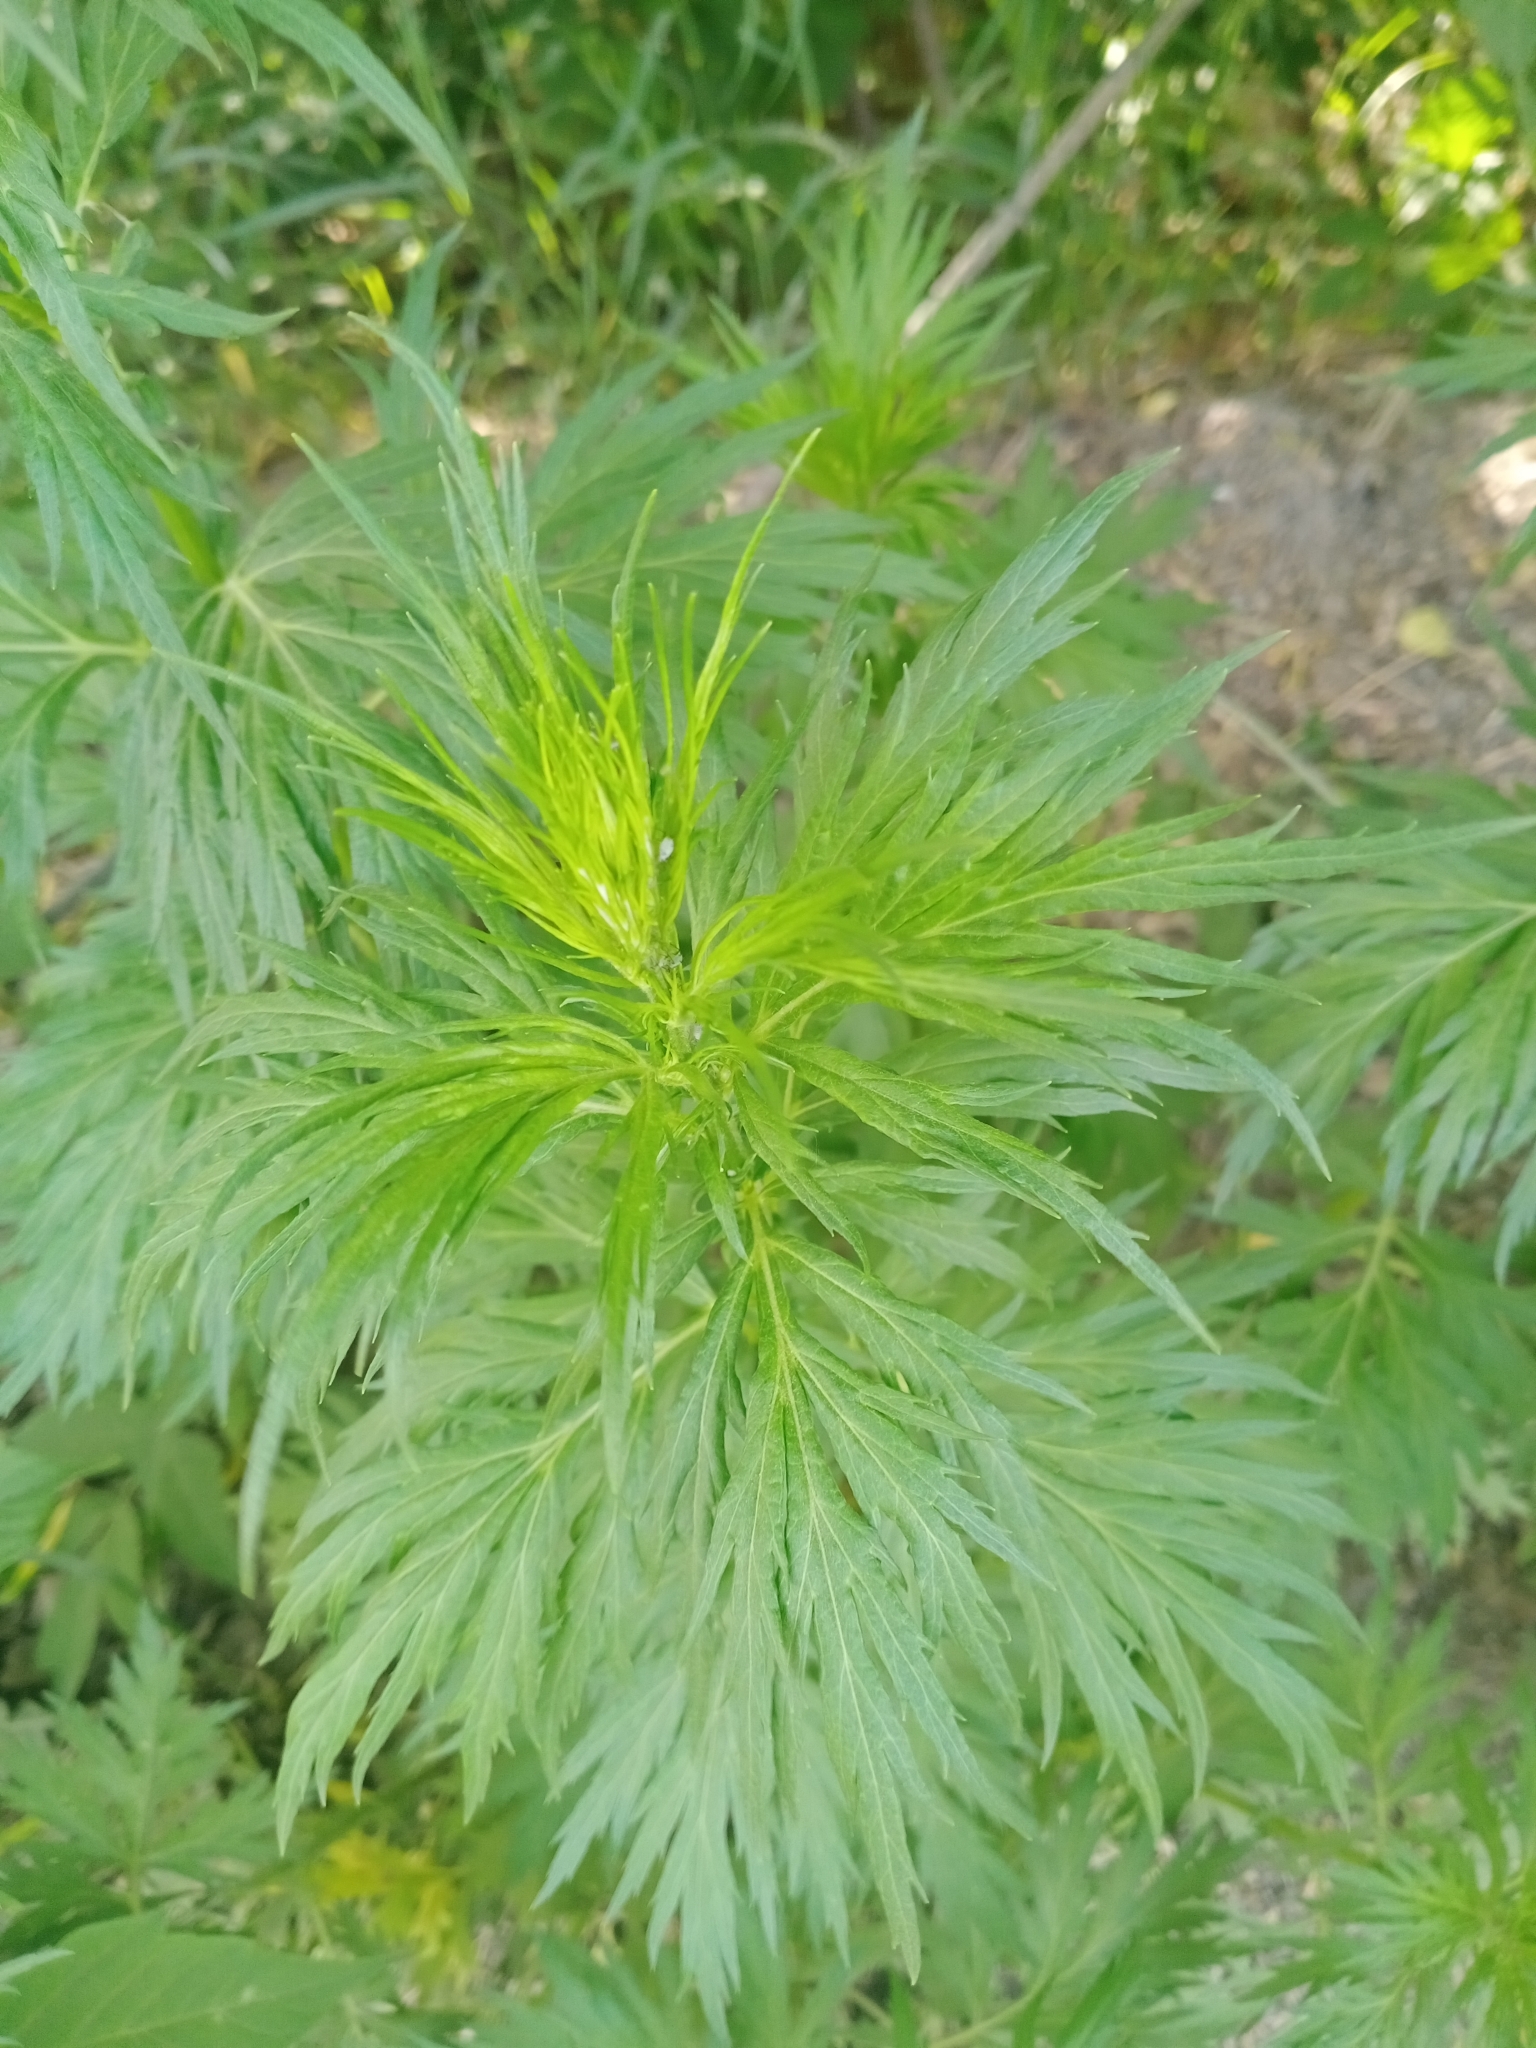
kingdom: Plantae
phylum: Tracheophyta
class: Magnoliopsida
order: Asterales
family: Asteraceae
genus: Artemisia
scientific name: Artemisia vulgaris
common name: Mugwort
